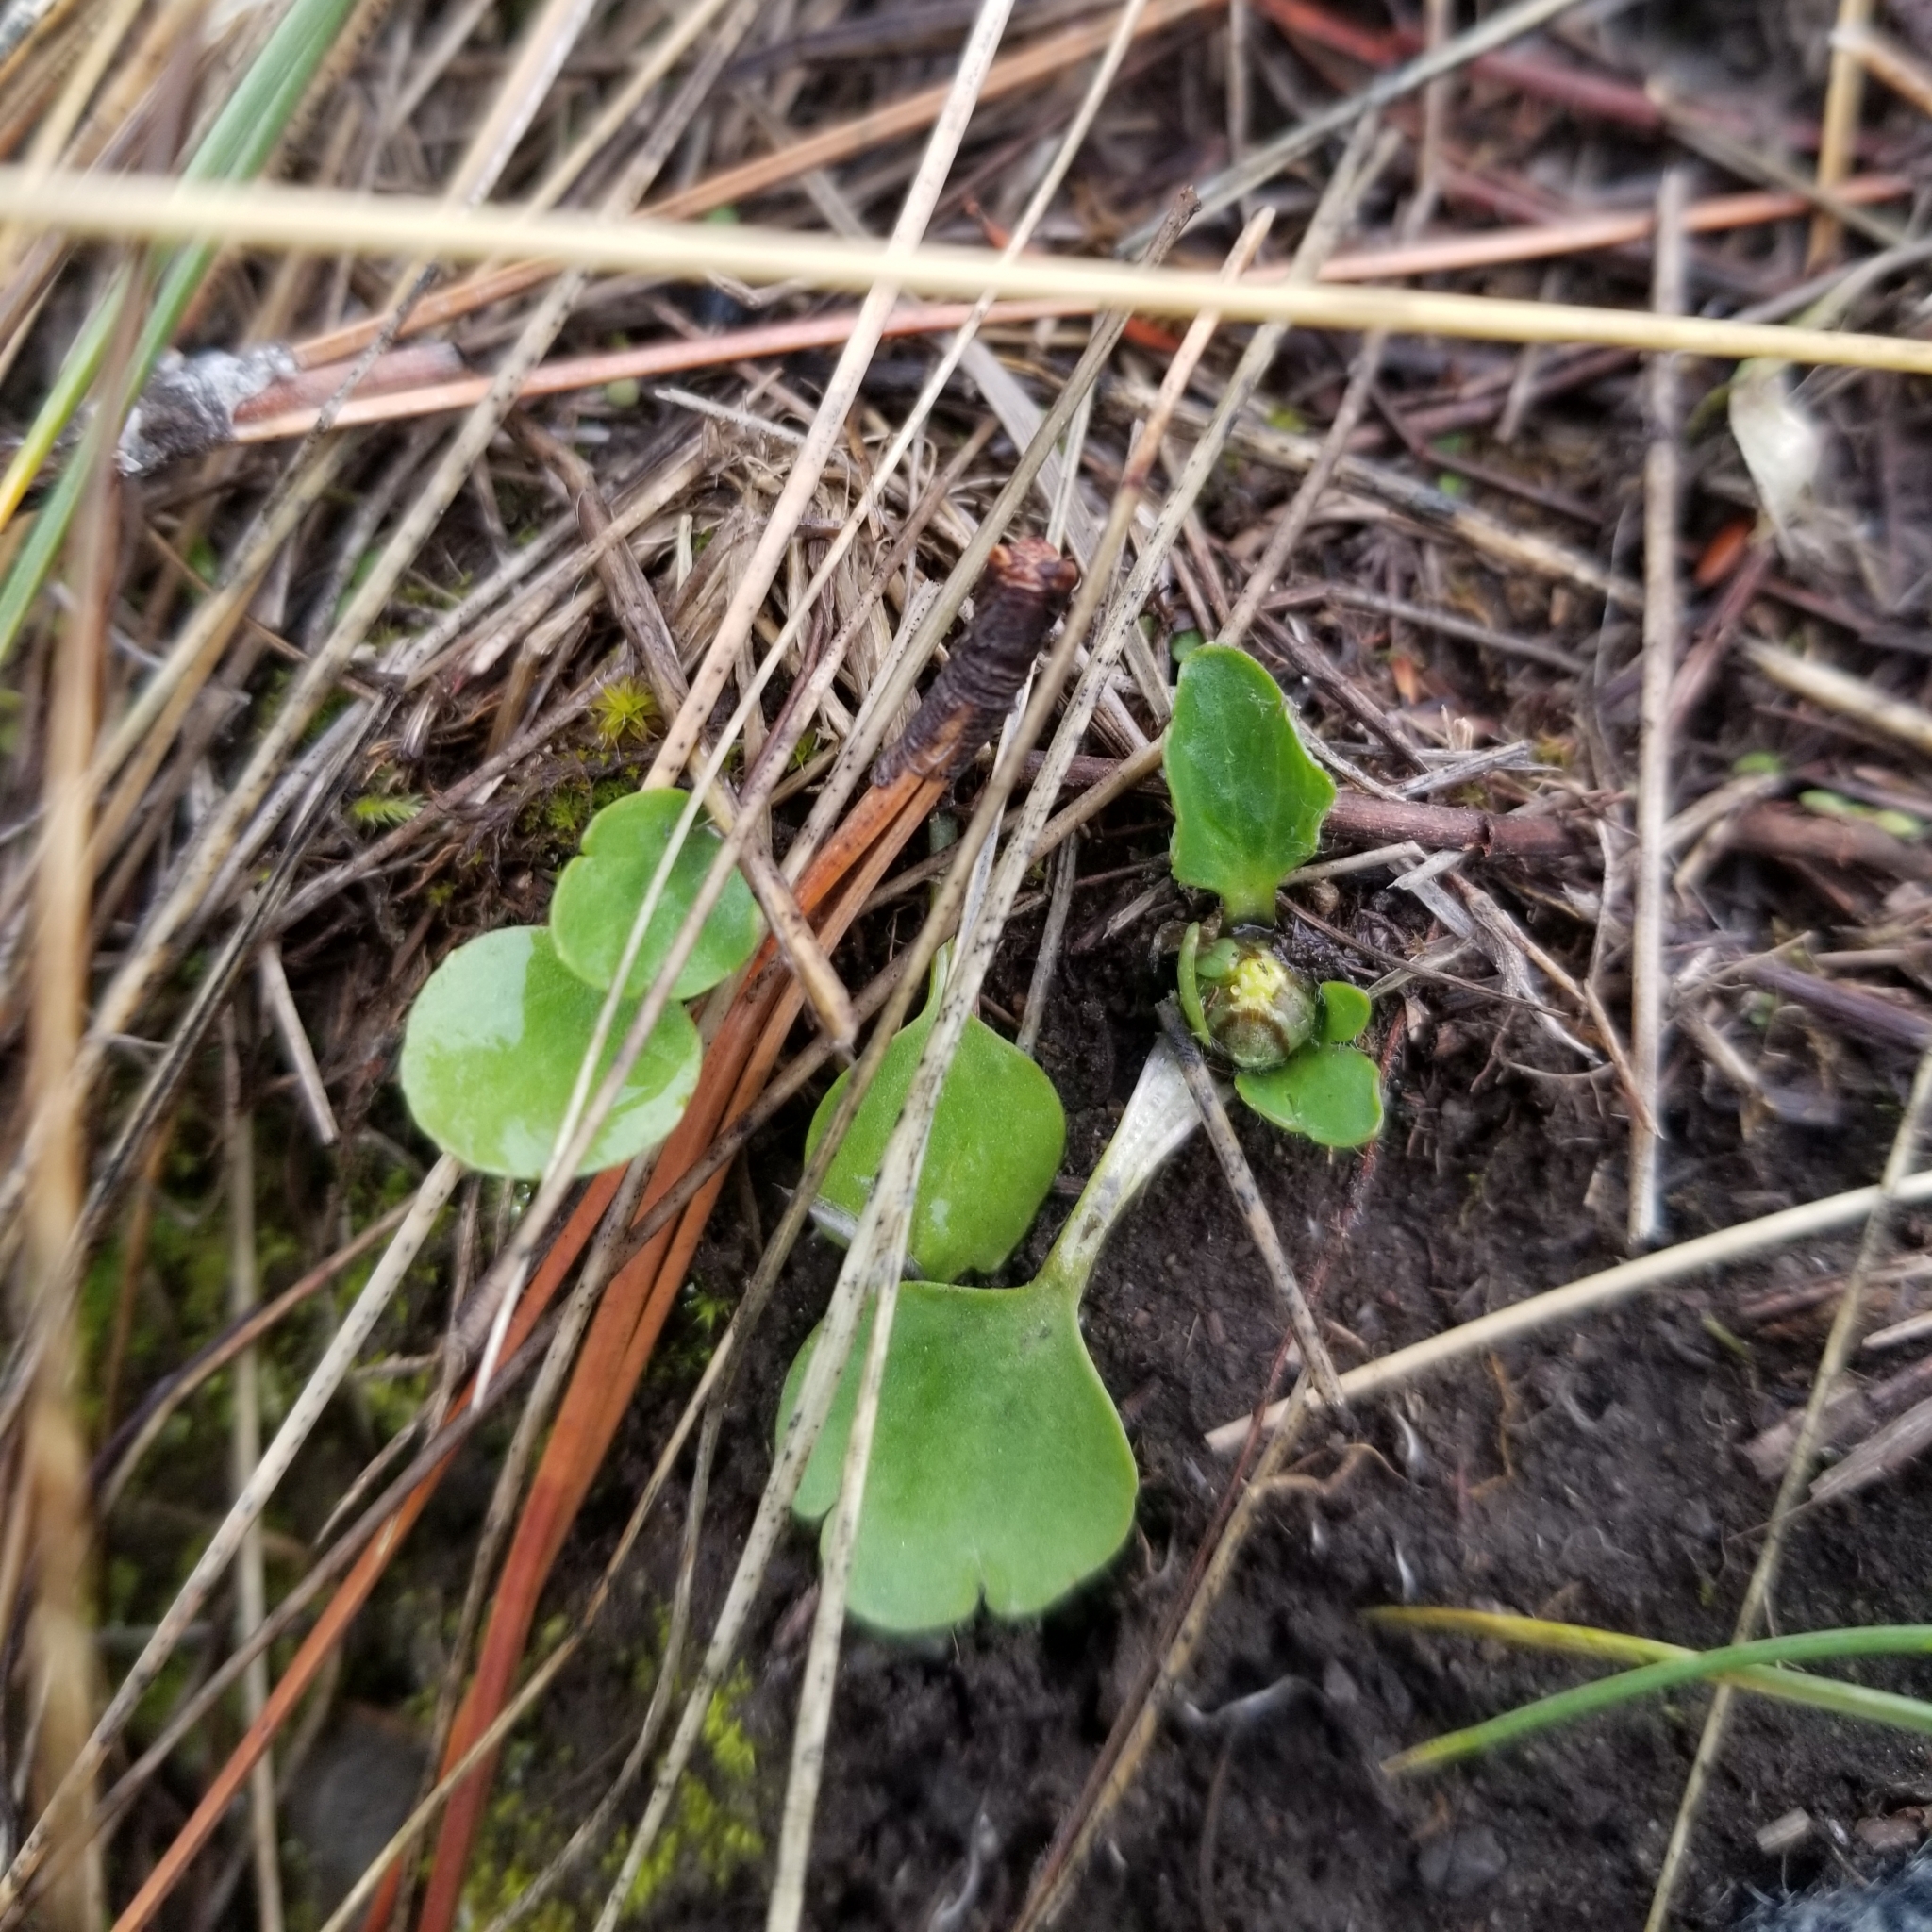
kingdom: Plantae
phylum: Tracheophyta
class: Magnoliopsida
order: Ranunculales
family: Ranunculaceae
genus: Ranunculus
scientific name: Ranunculus glaberrimus
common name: Sagebrush buttercup
